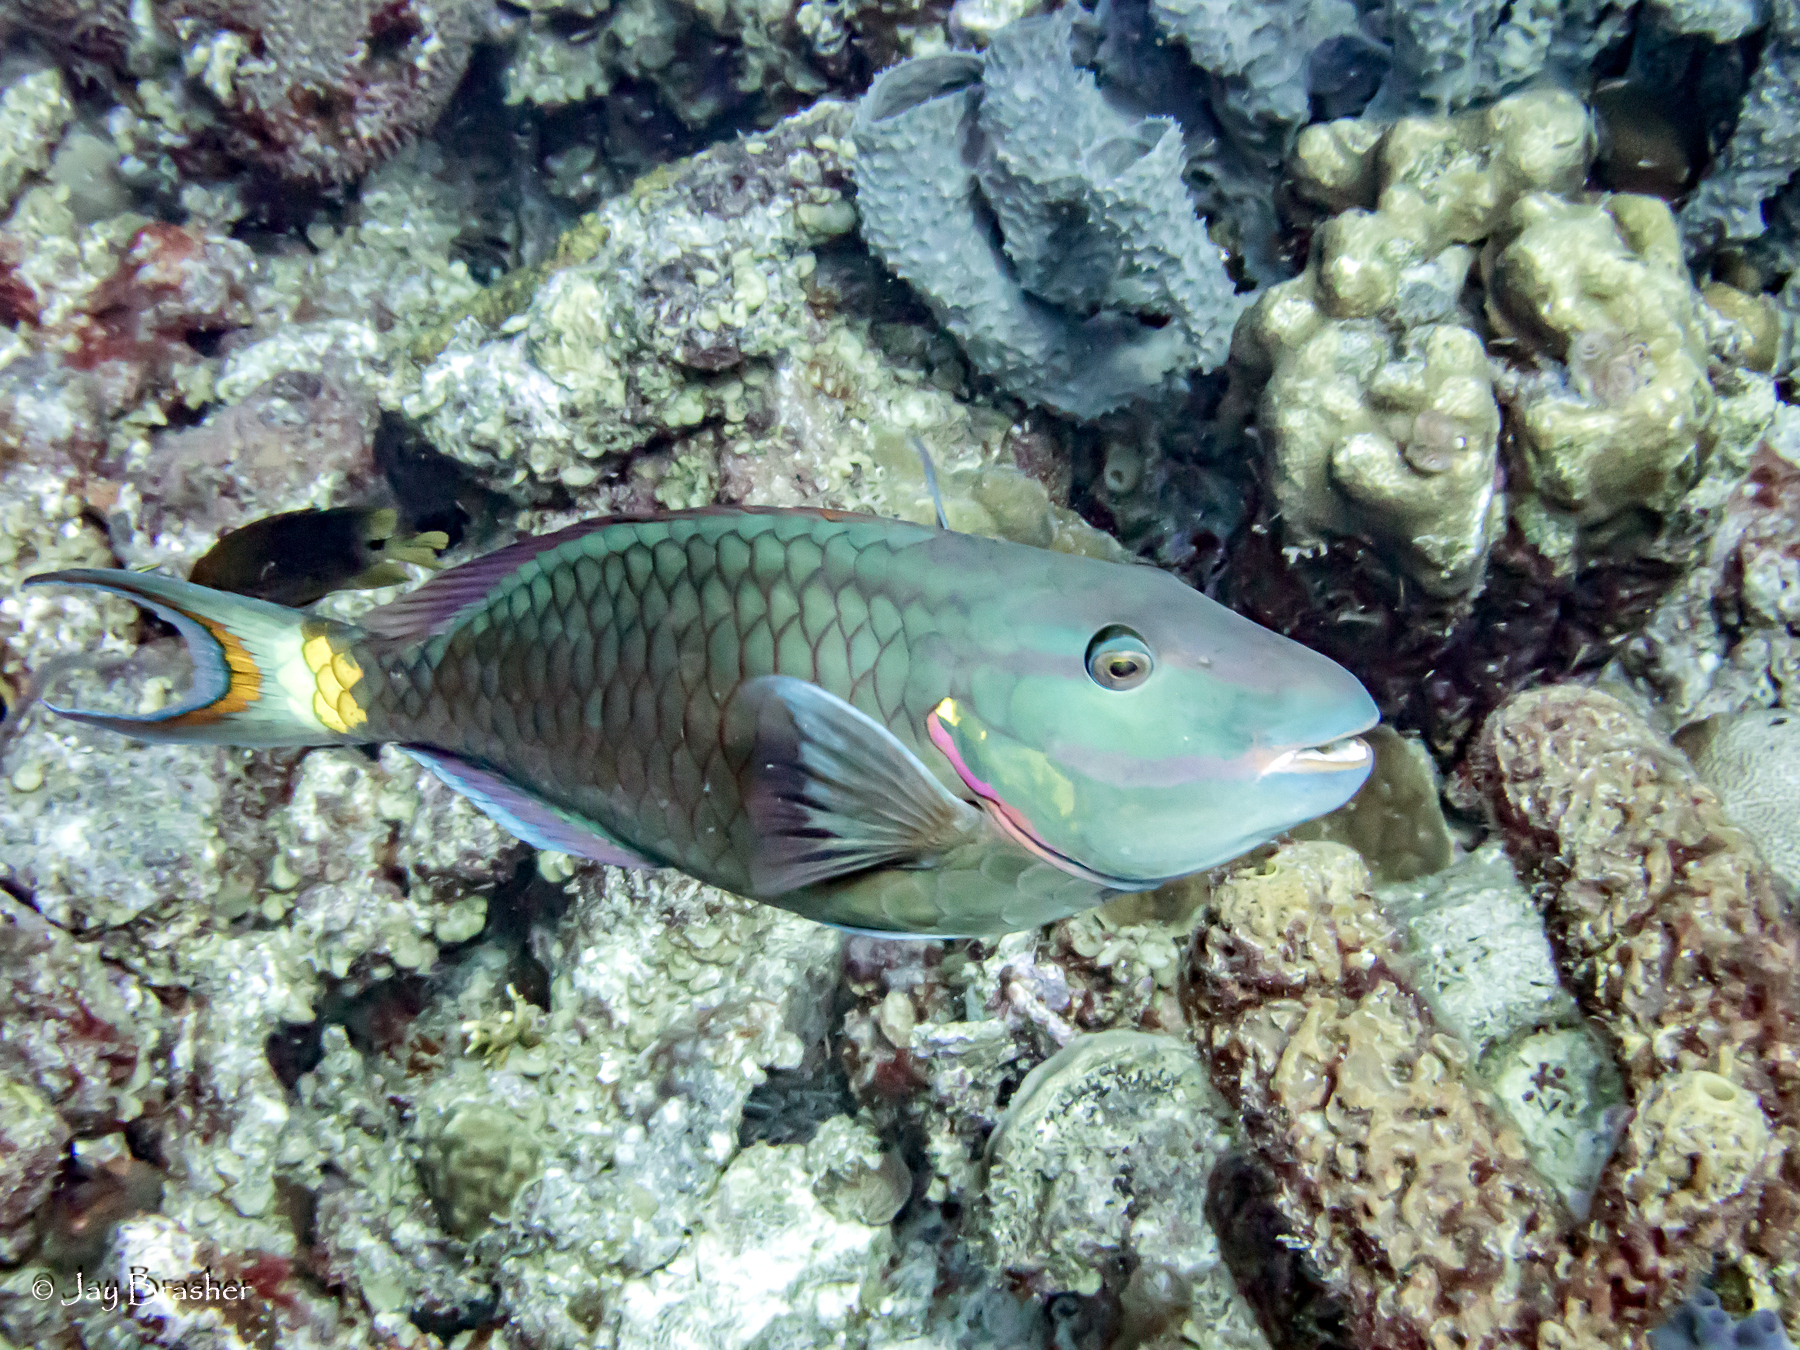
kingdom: Animalia
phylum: Porifera
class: Demospongiae
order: Haplosclerida
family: Callyspongiidae
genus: Callyspongia
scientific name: Callyspongia aculeata
